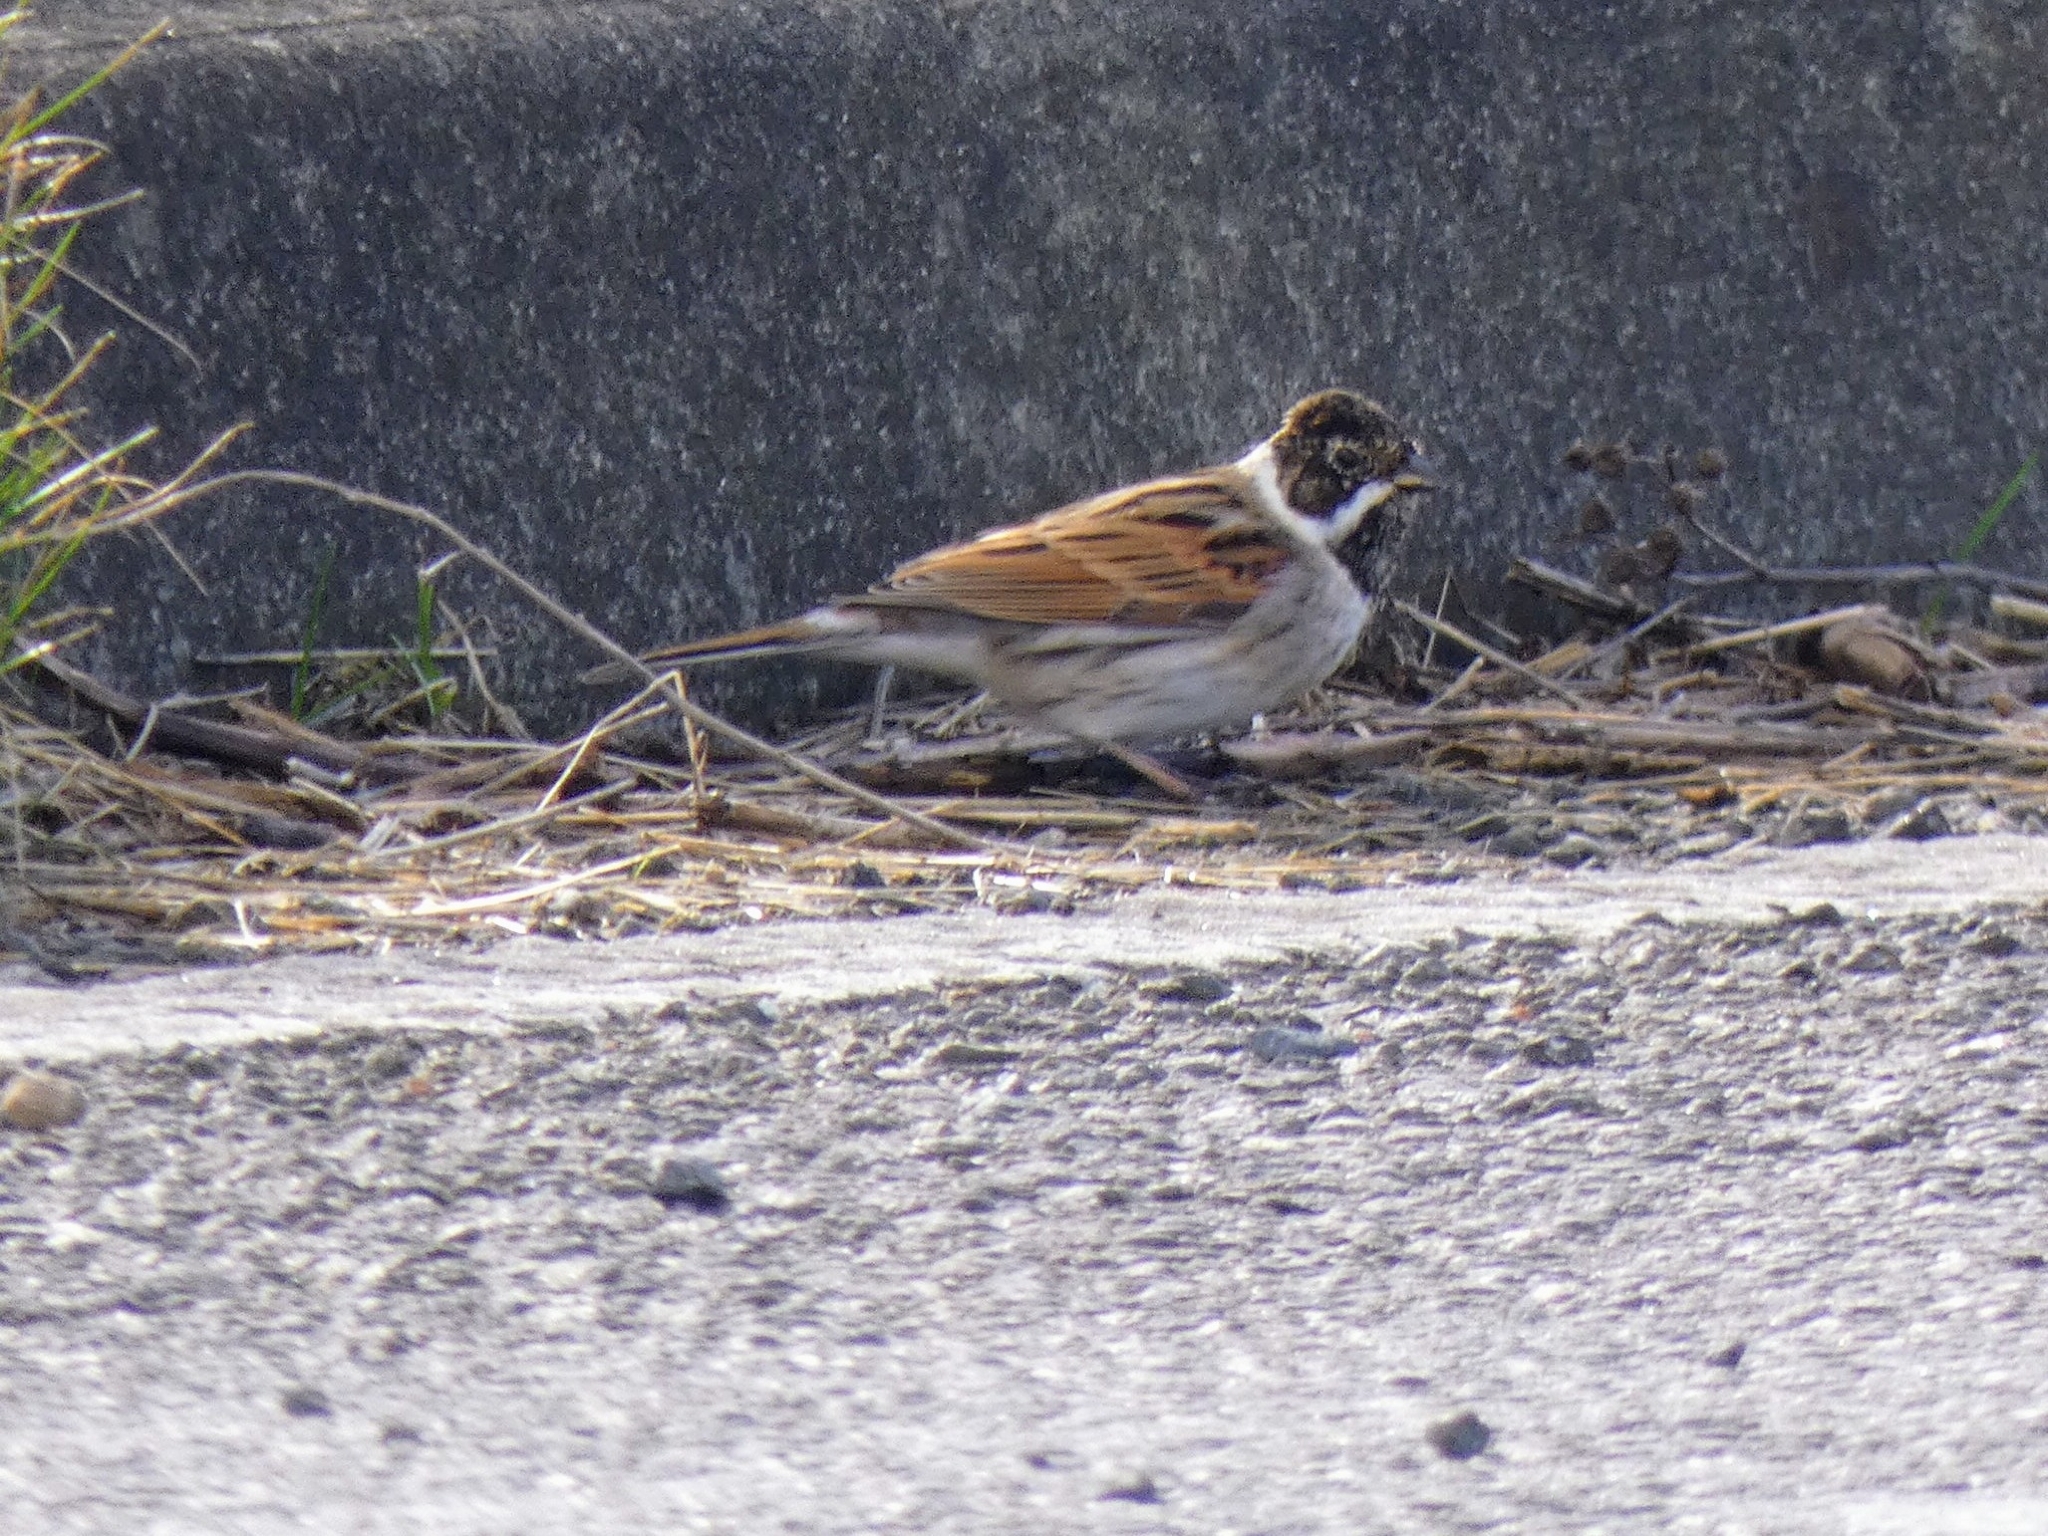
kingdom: Animalia
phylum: Chordata
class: Aves
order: Passeriformes
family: Emberizidae
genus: Emberiza
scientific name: Emberiza schoeniclus
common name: Reed bunting
